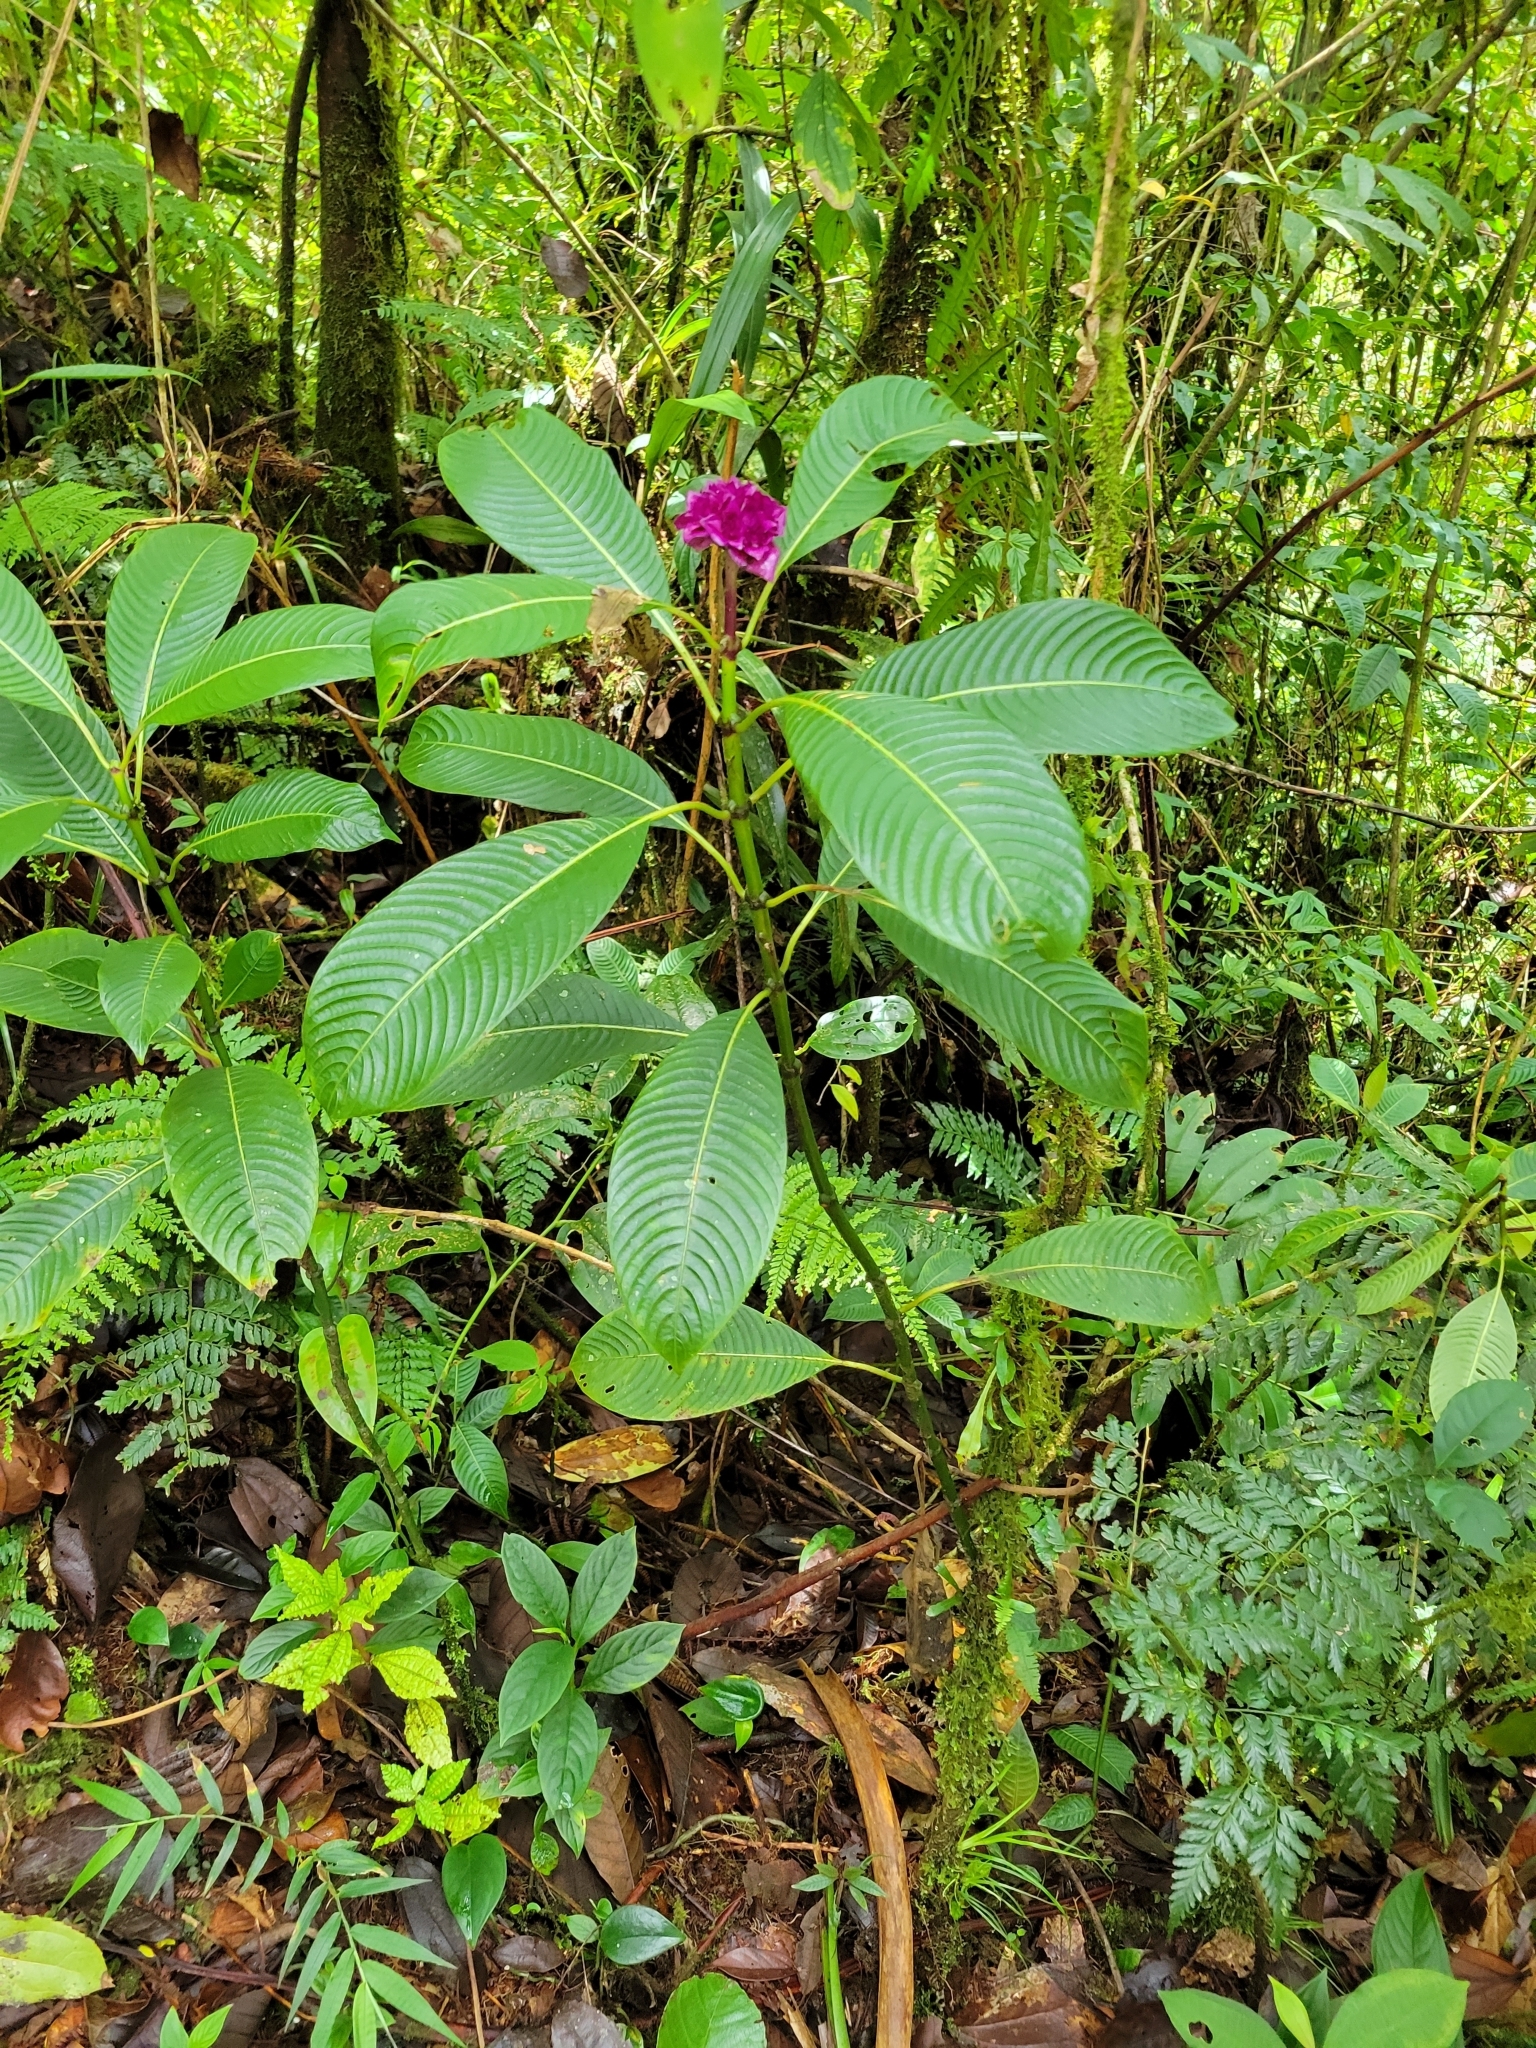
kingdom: Plantae
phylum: Tracheophyta
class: Magnoliopsida
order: Gentianales
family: Rubiaceae
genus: Palicourea
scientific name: Palicourea chiriquiensis
